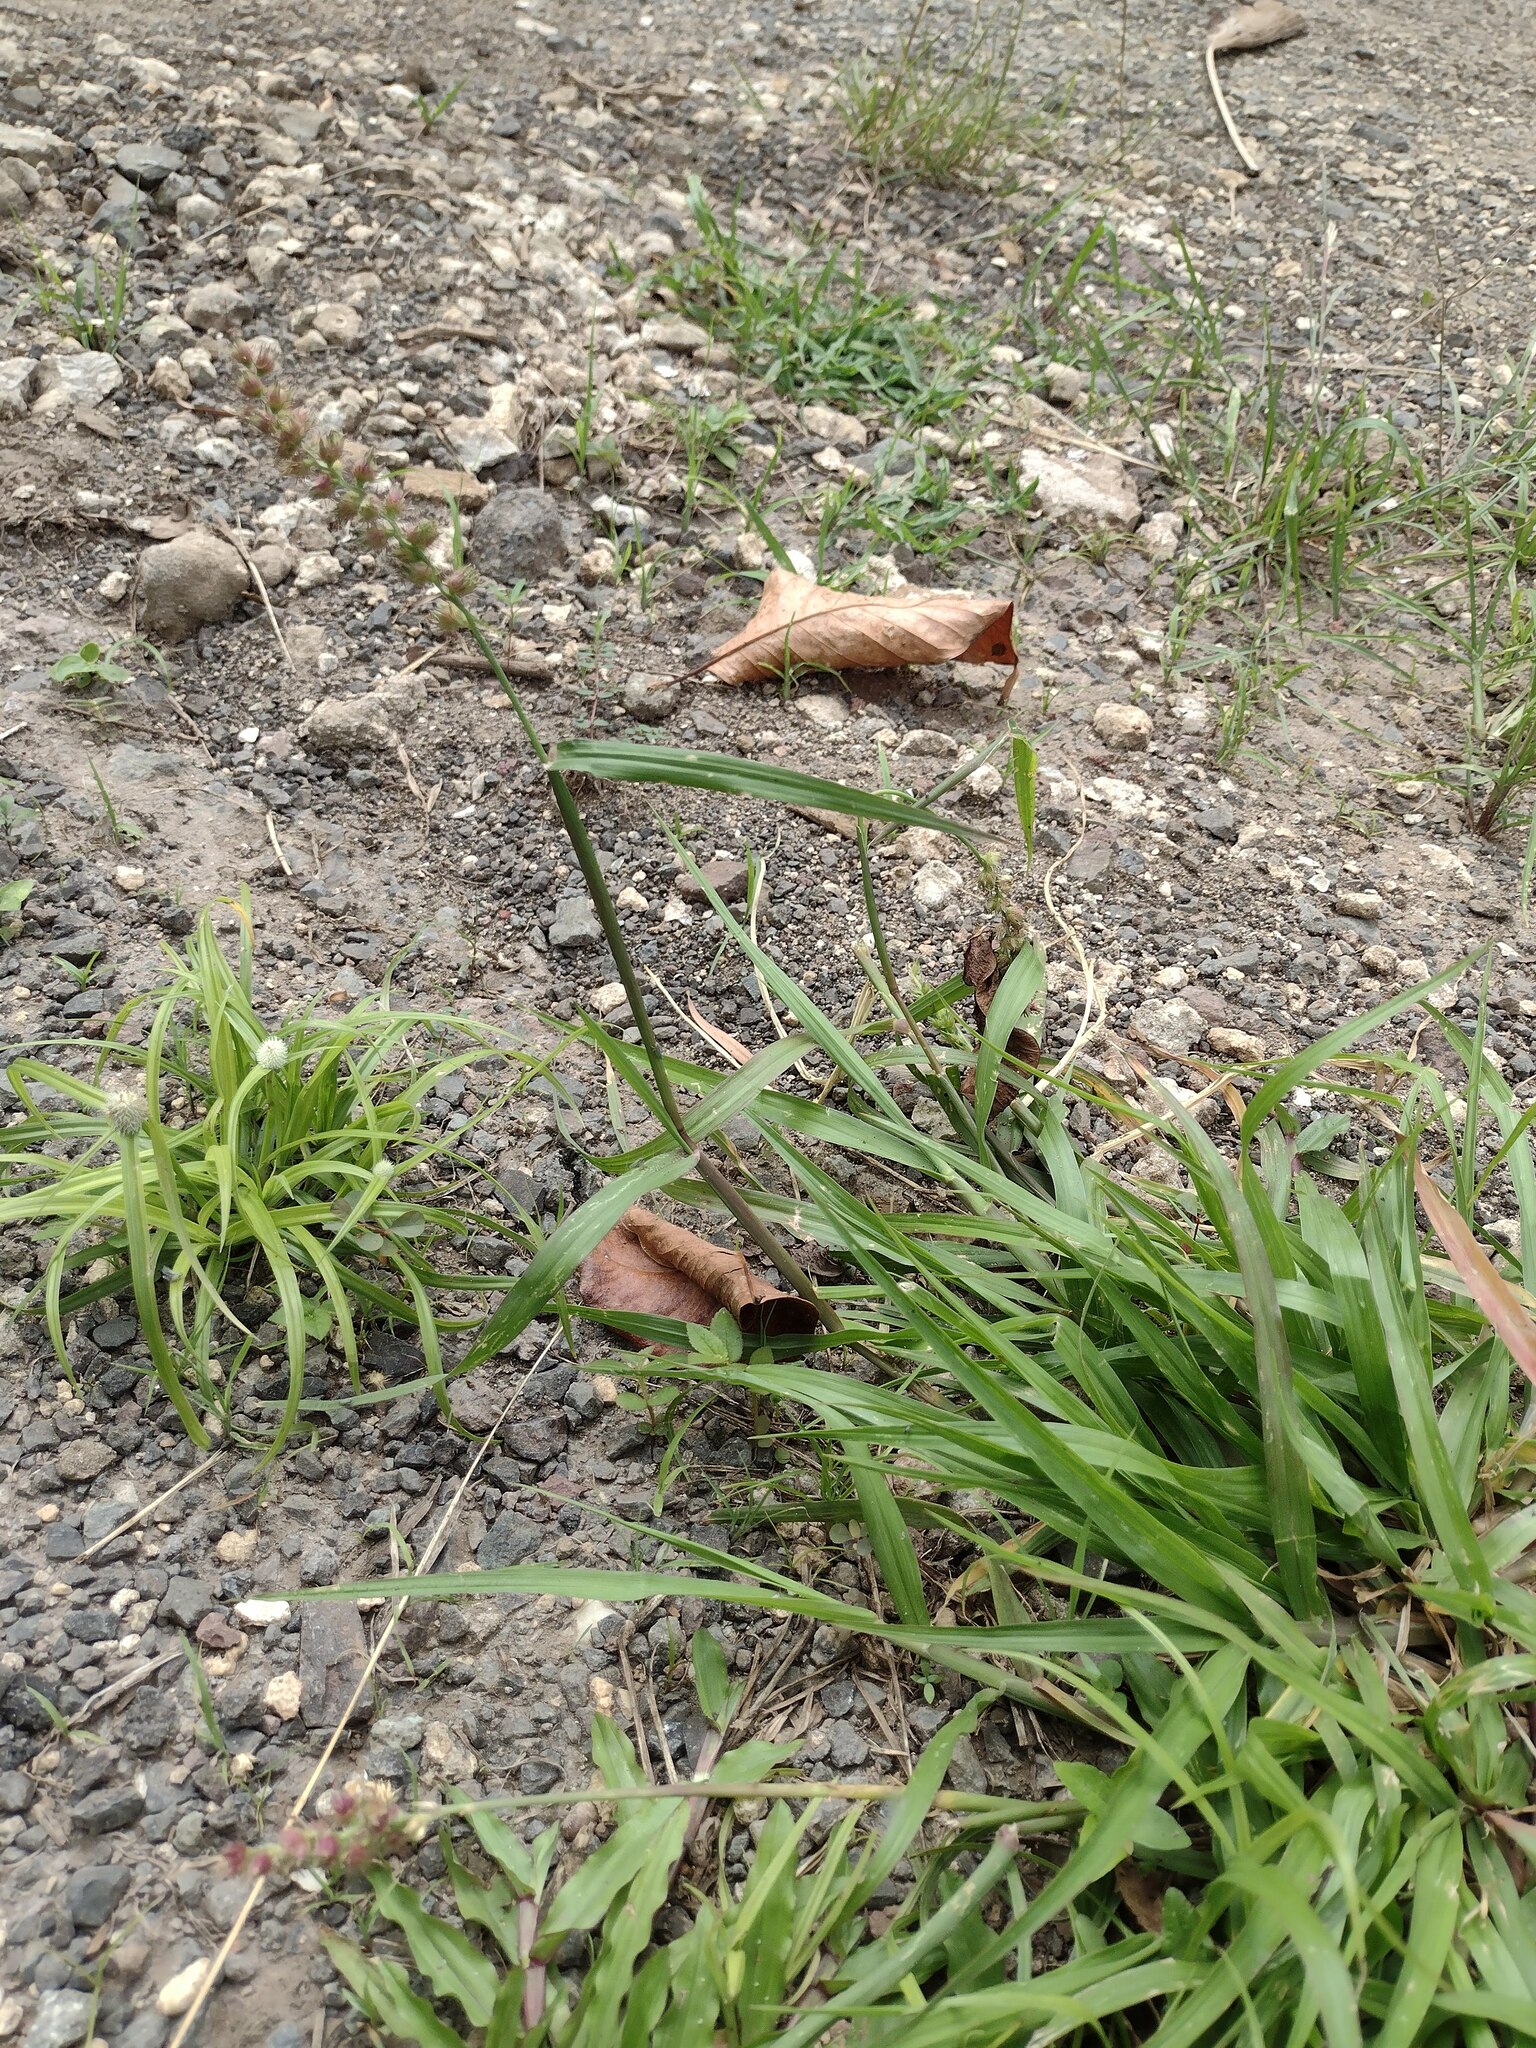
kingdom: Plantae
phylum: Tracheophyta
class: Liliopsida
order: Poales
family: Poaceae
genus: Cenchrus
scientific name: Cenchrus echinatus
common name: Southern sandbur
